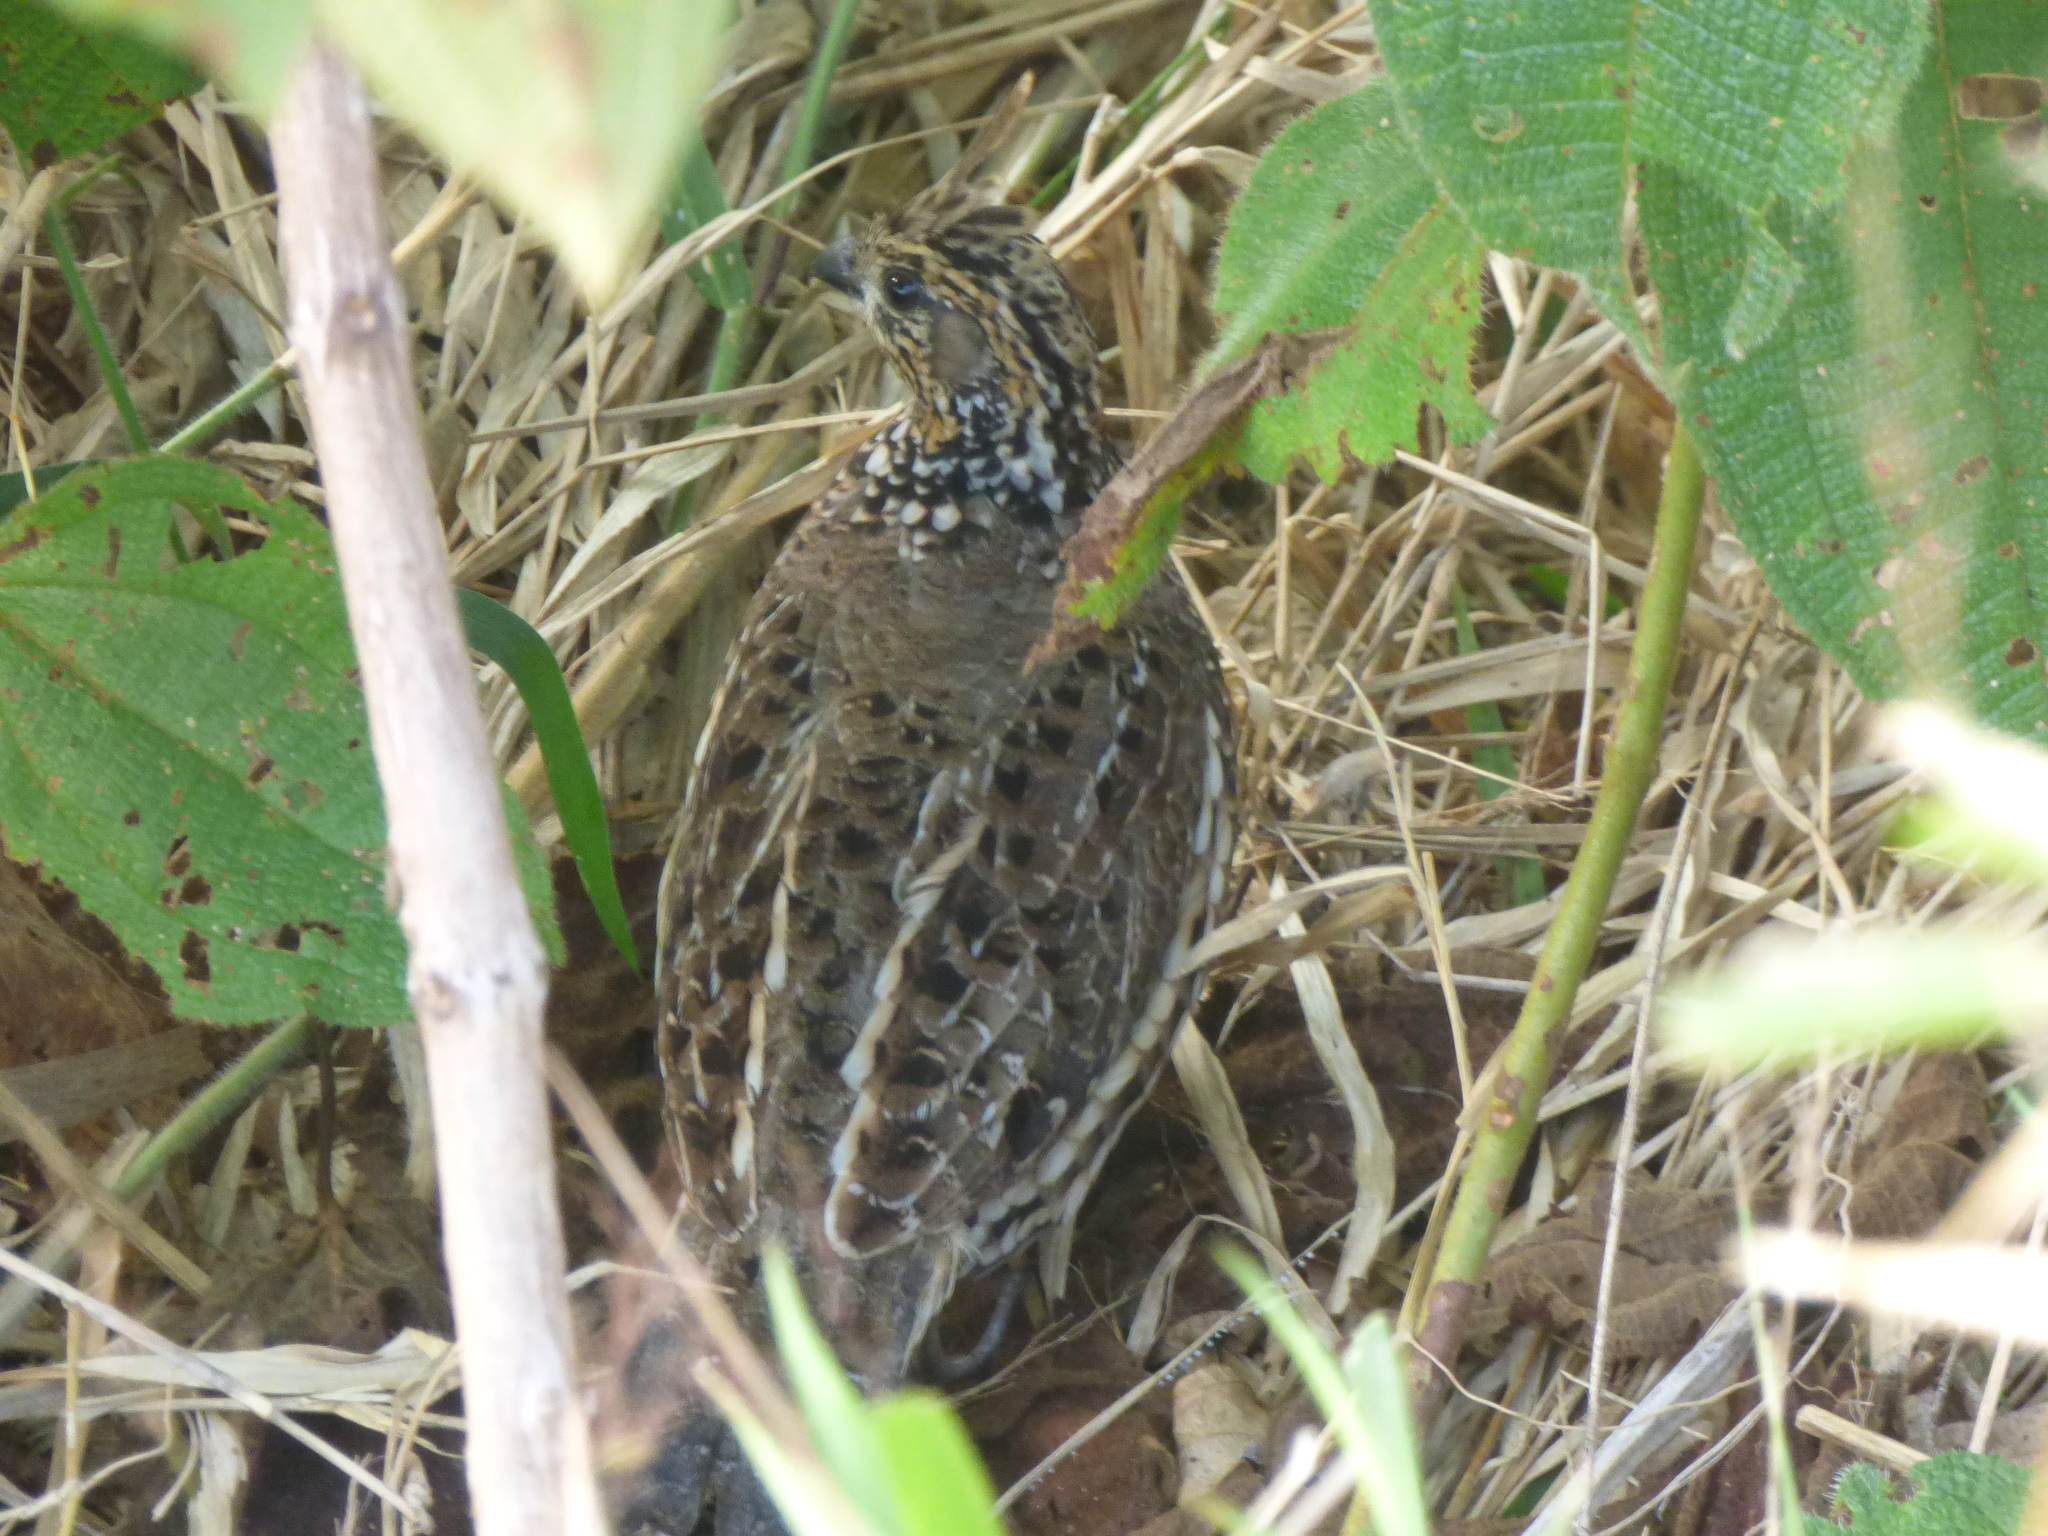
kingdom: Animalia
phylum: Chordata
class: Aves
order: Galliformes
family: Odontophoridae
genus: Colinus
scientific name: Colinus cristatus
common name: Crested bobwhite
